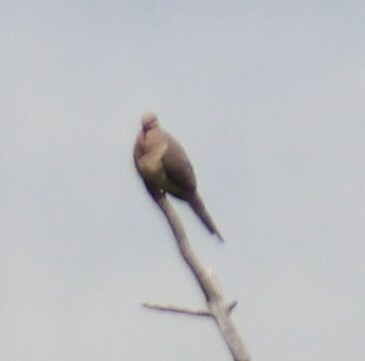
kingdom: Animalia
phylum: Chordata
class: Aves
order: Columbiformes
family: Columbidae
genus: Zenaida
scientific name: Zenaida macroura
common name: Mourning dove
